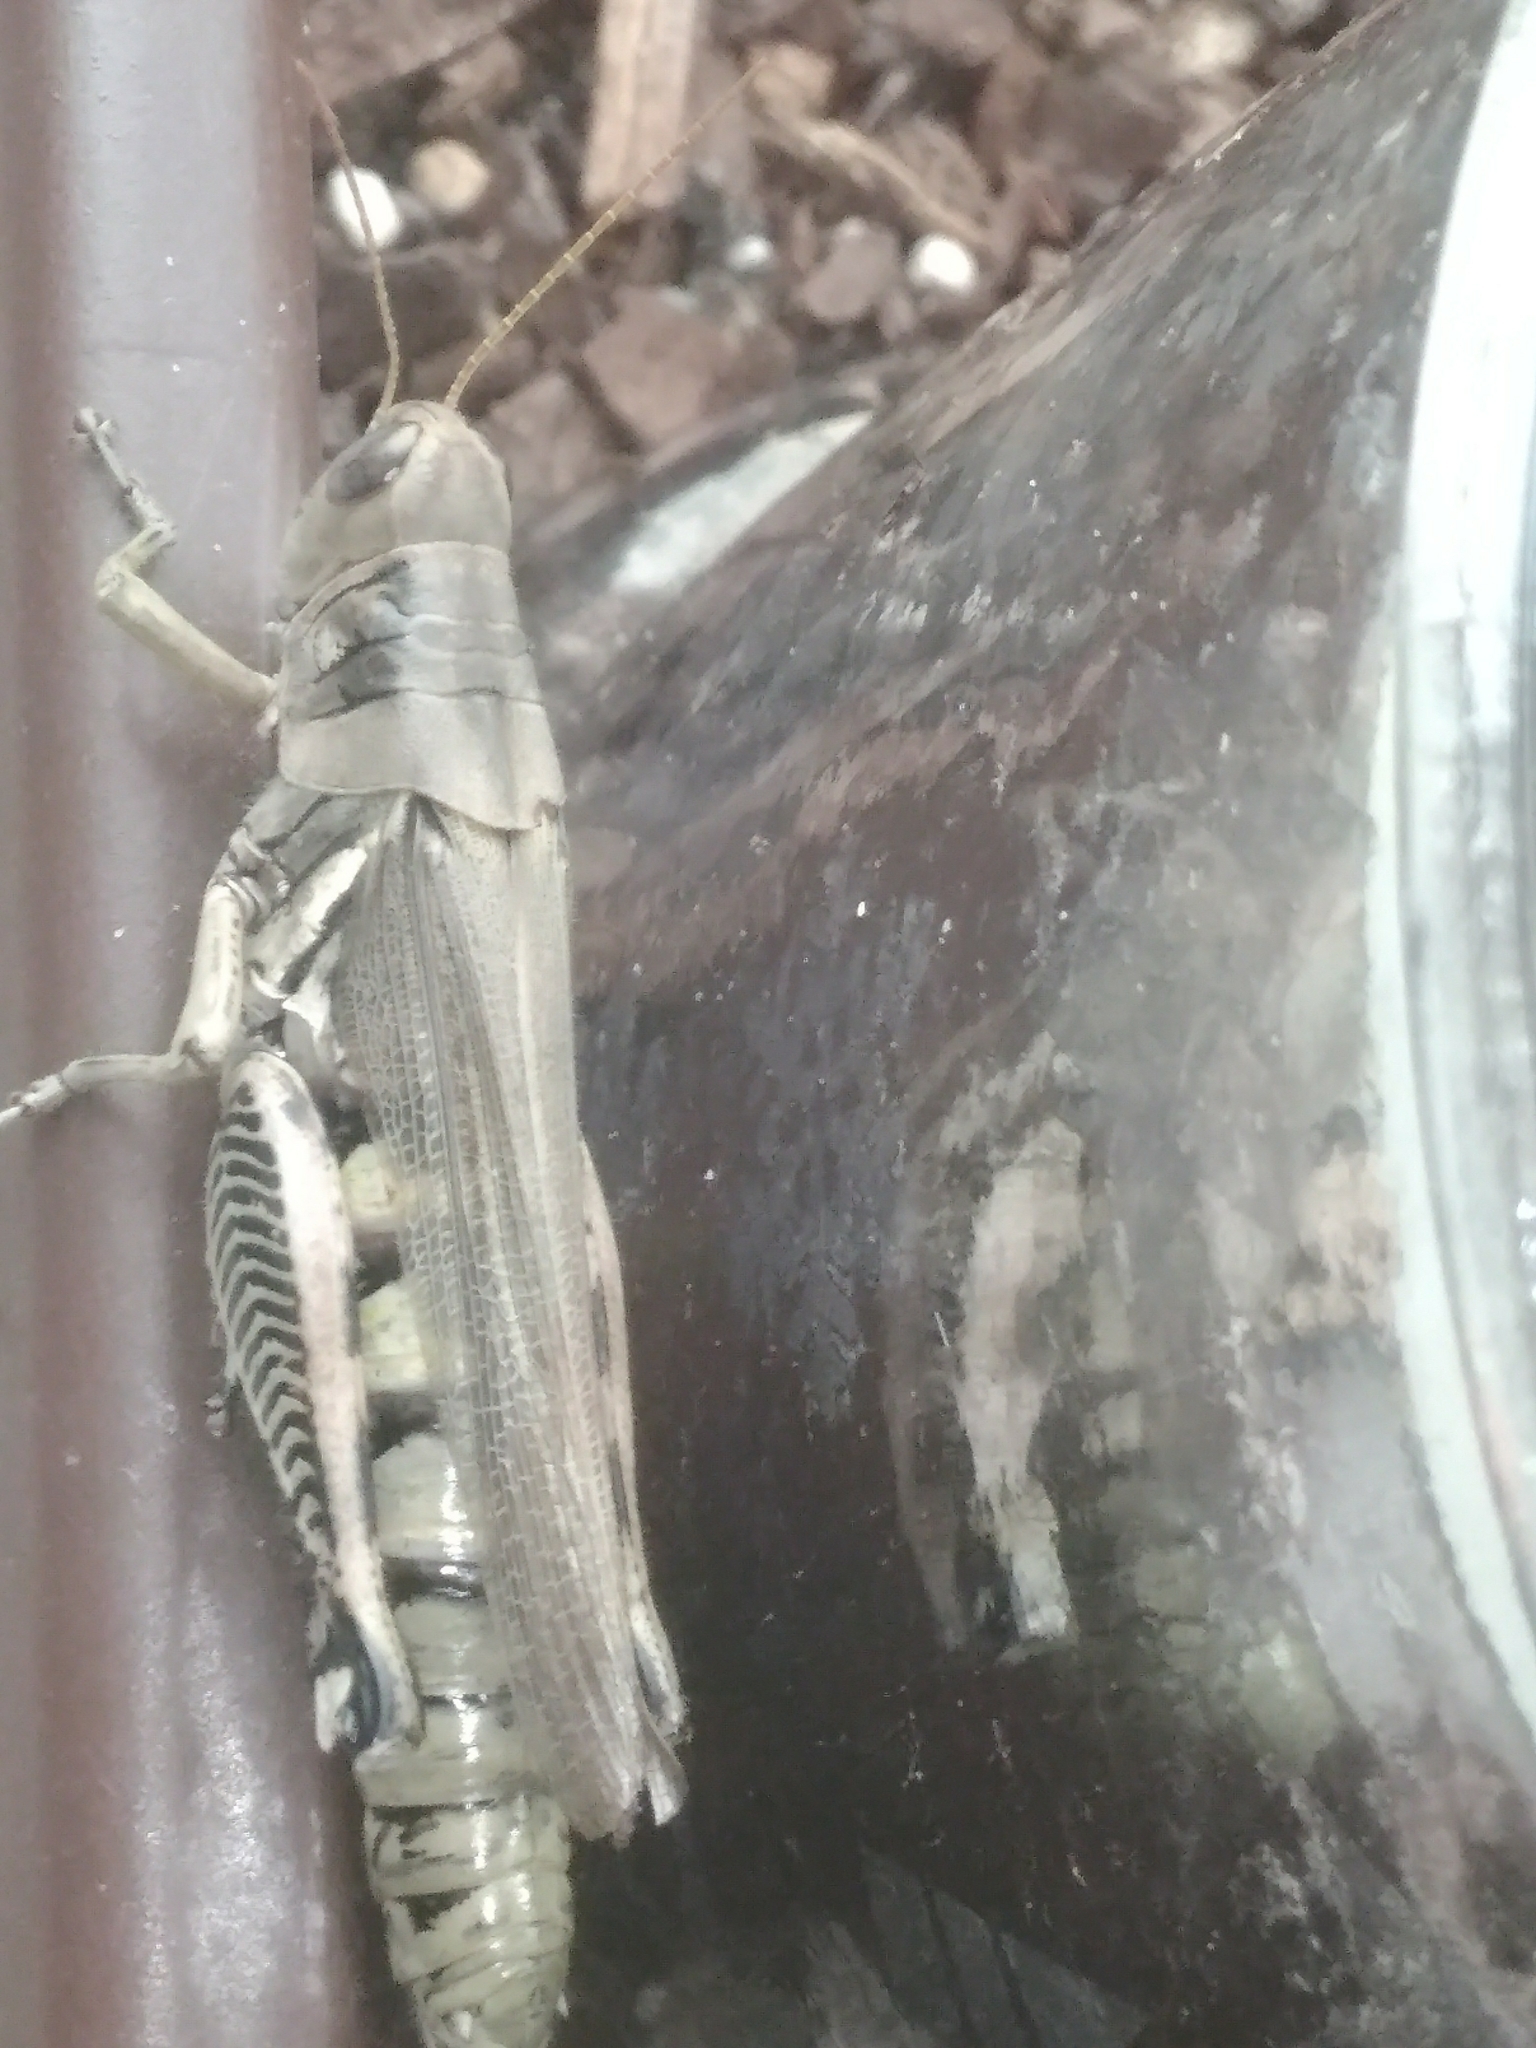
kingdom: Animalia
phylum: Arthropoda
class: Insecta
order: Orthoptera
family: Acrididae
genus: Melanoplus
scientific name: Melanoplus differentialis
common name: Differential grasshopper
